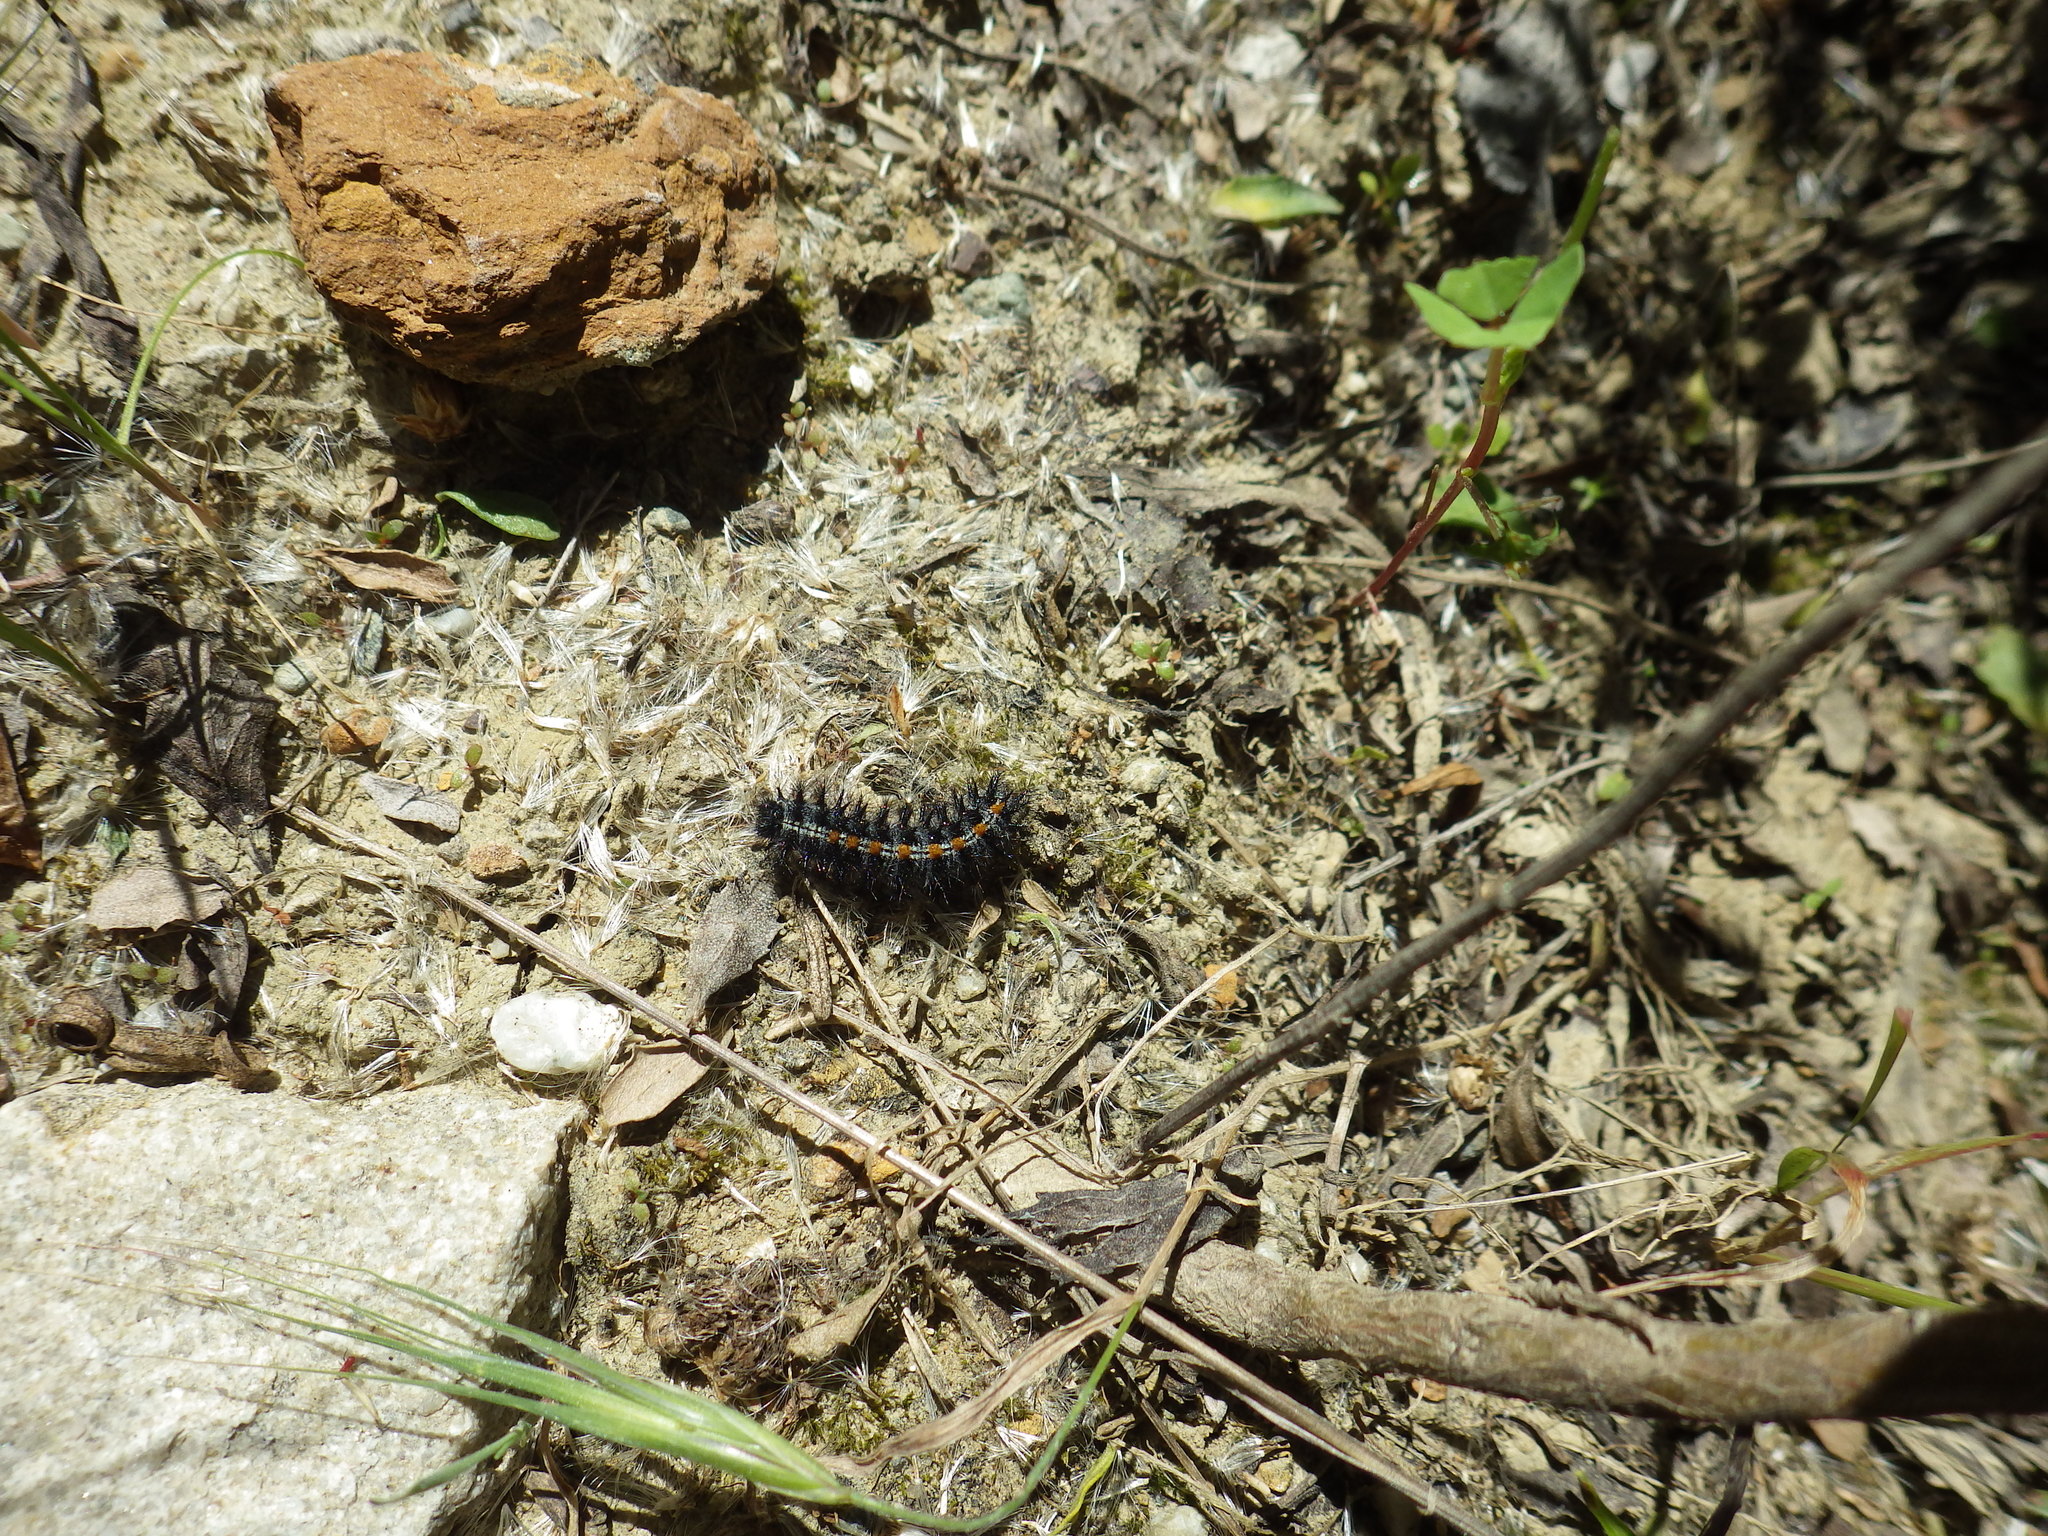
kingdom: Animalia
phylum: Arthropoda
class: Insecta
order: Lepidoptera
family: Nymphalidae
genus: Occidryas
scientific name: Occidryas chalcedona
